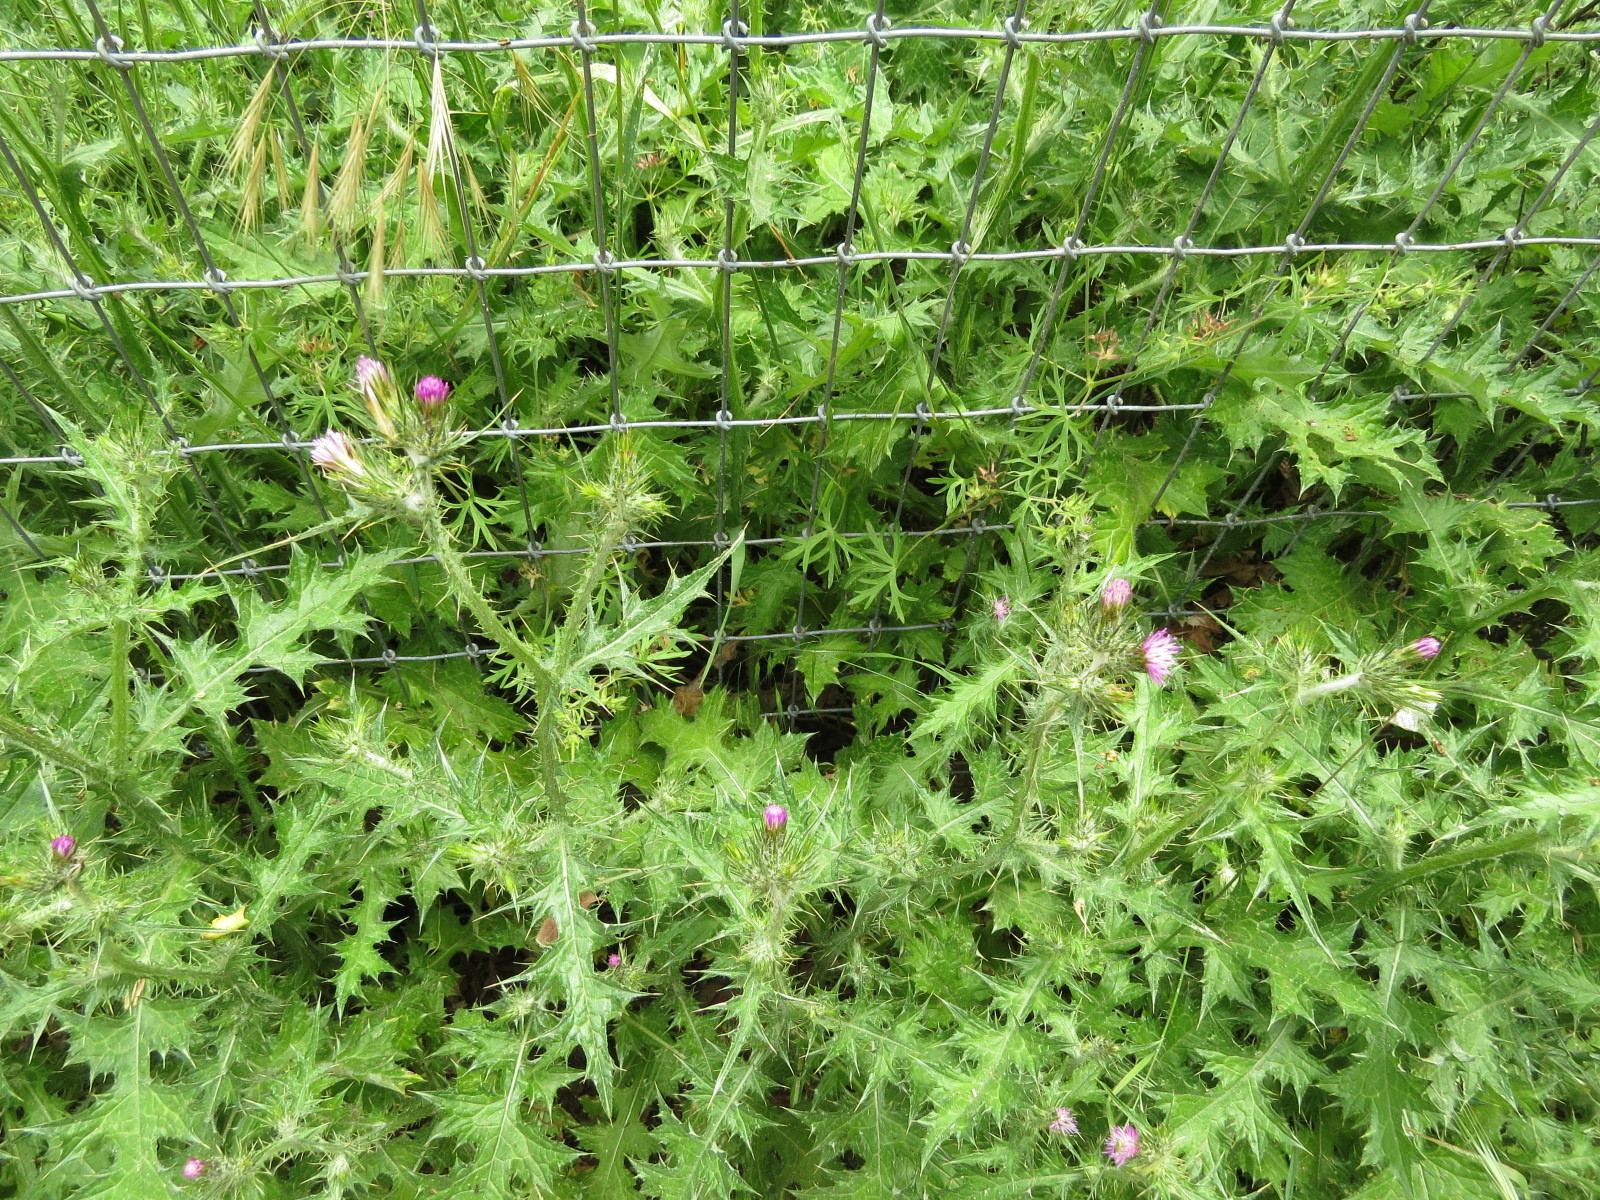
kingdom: Plantae
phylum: Tracheophyta
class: Magnoliopsida
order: Asterales
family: Asteraceae
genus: Carduus
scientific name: Carduus pycnocephalus
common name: Plymouth thistle
